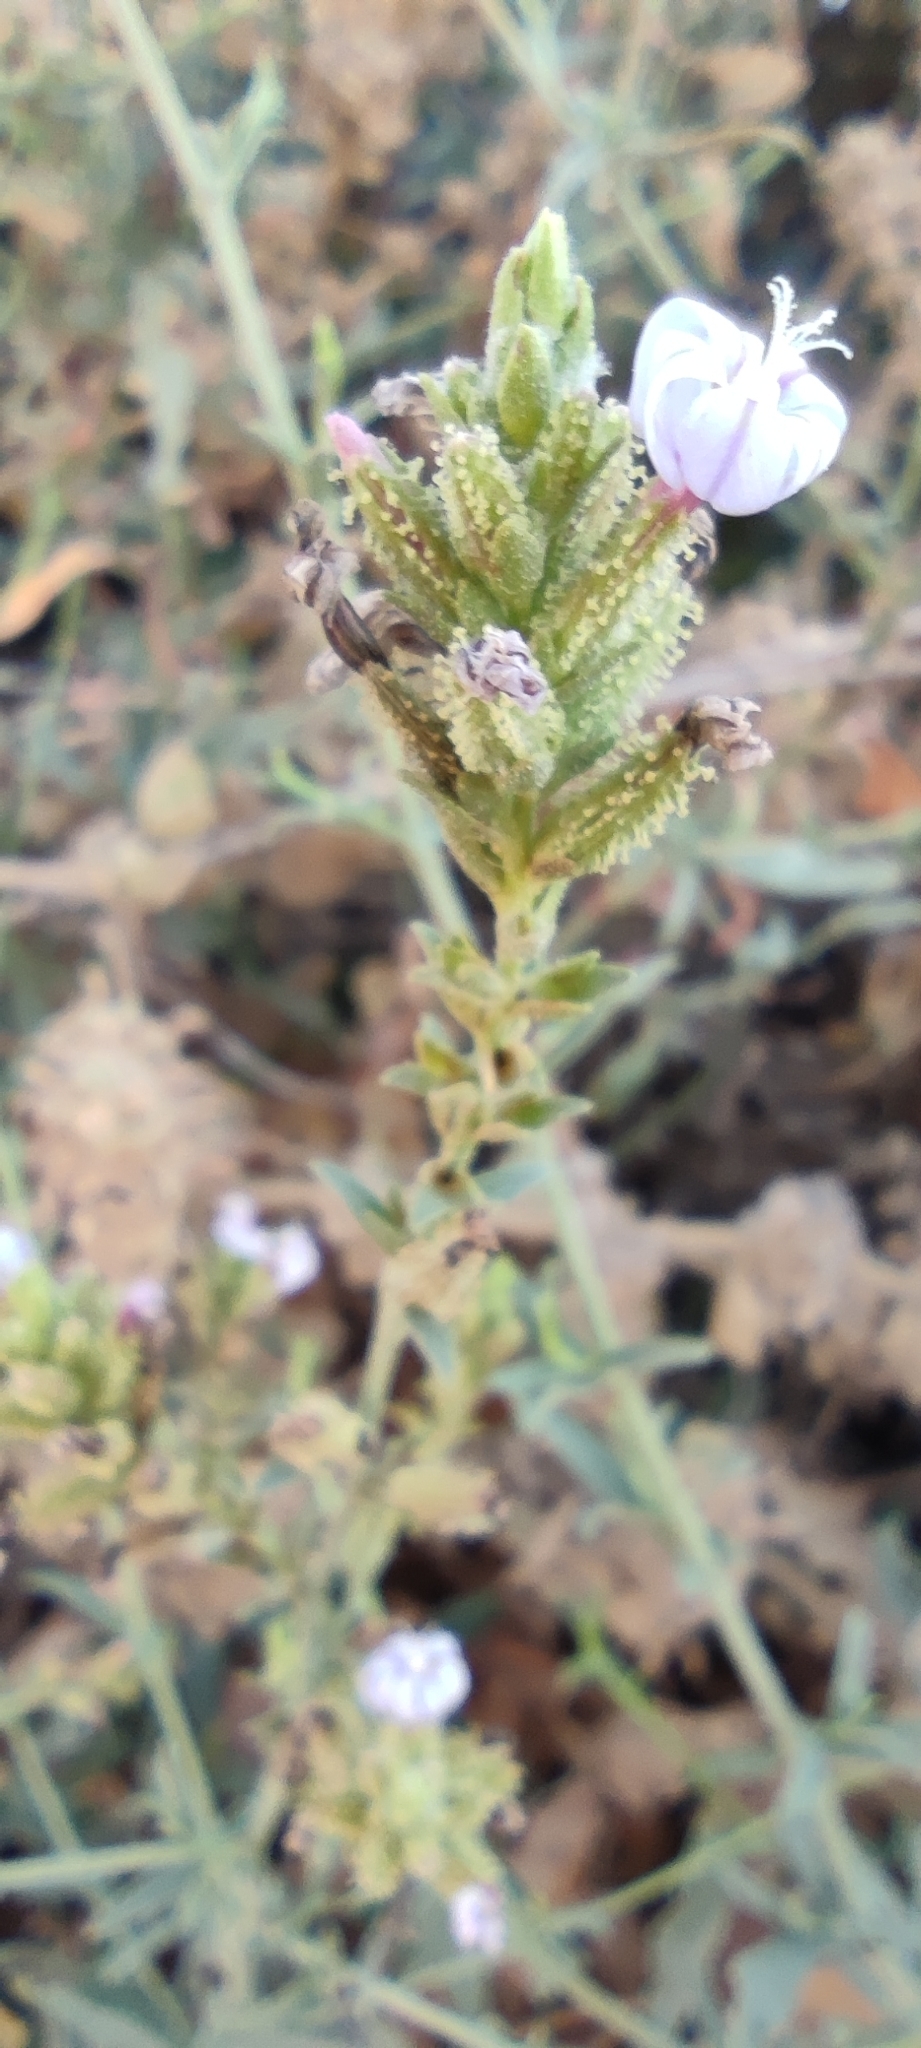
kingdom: Plantae
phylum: Tracheophyta
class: Magnoliopsida
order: Caryophyllales
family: Plumbaginaceae
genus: Plumbago
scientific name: Plumbago europaea
